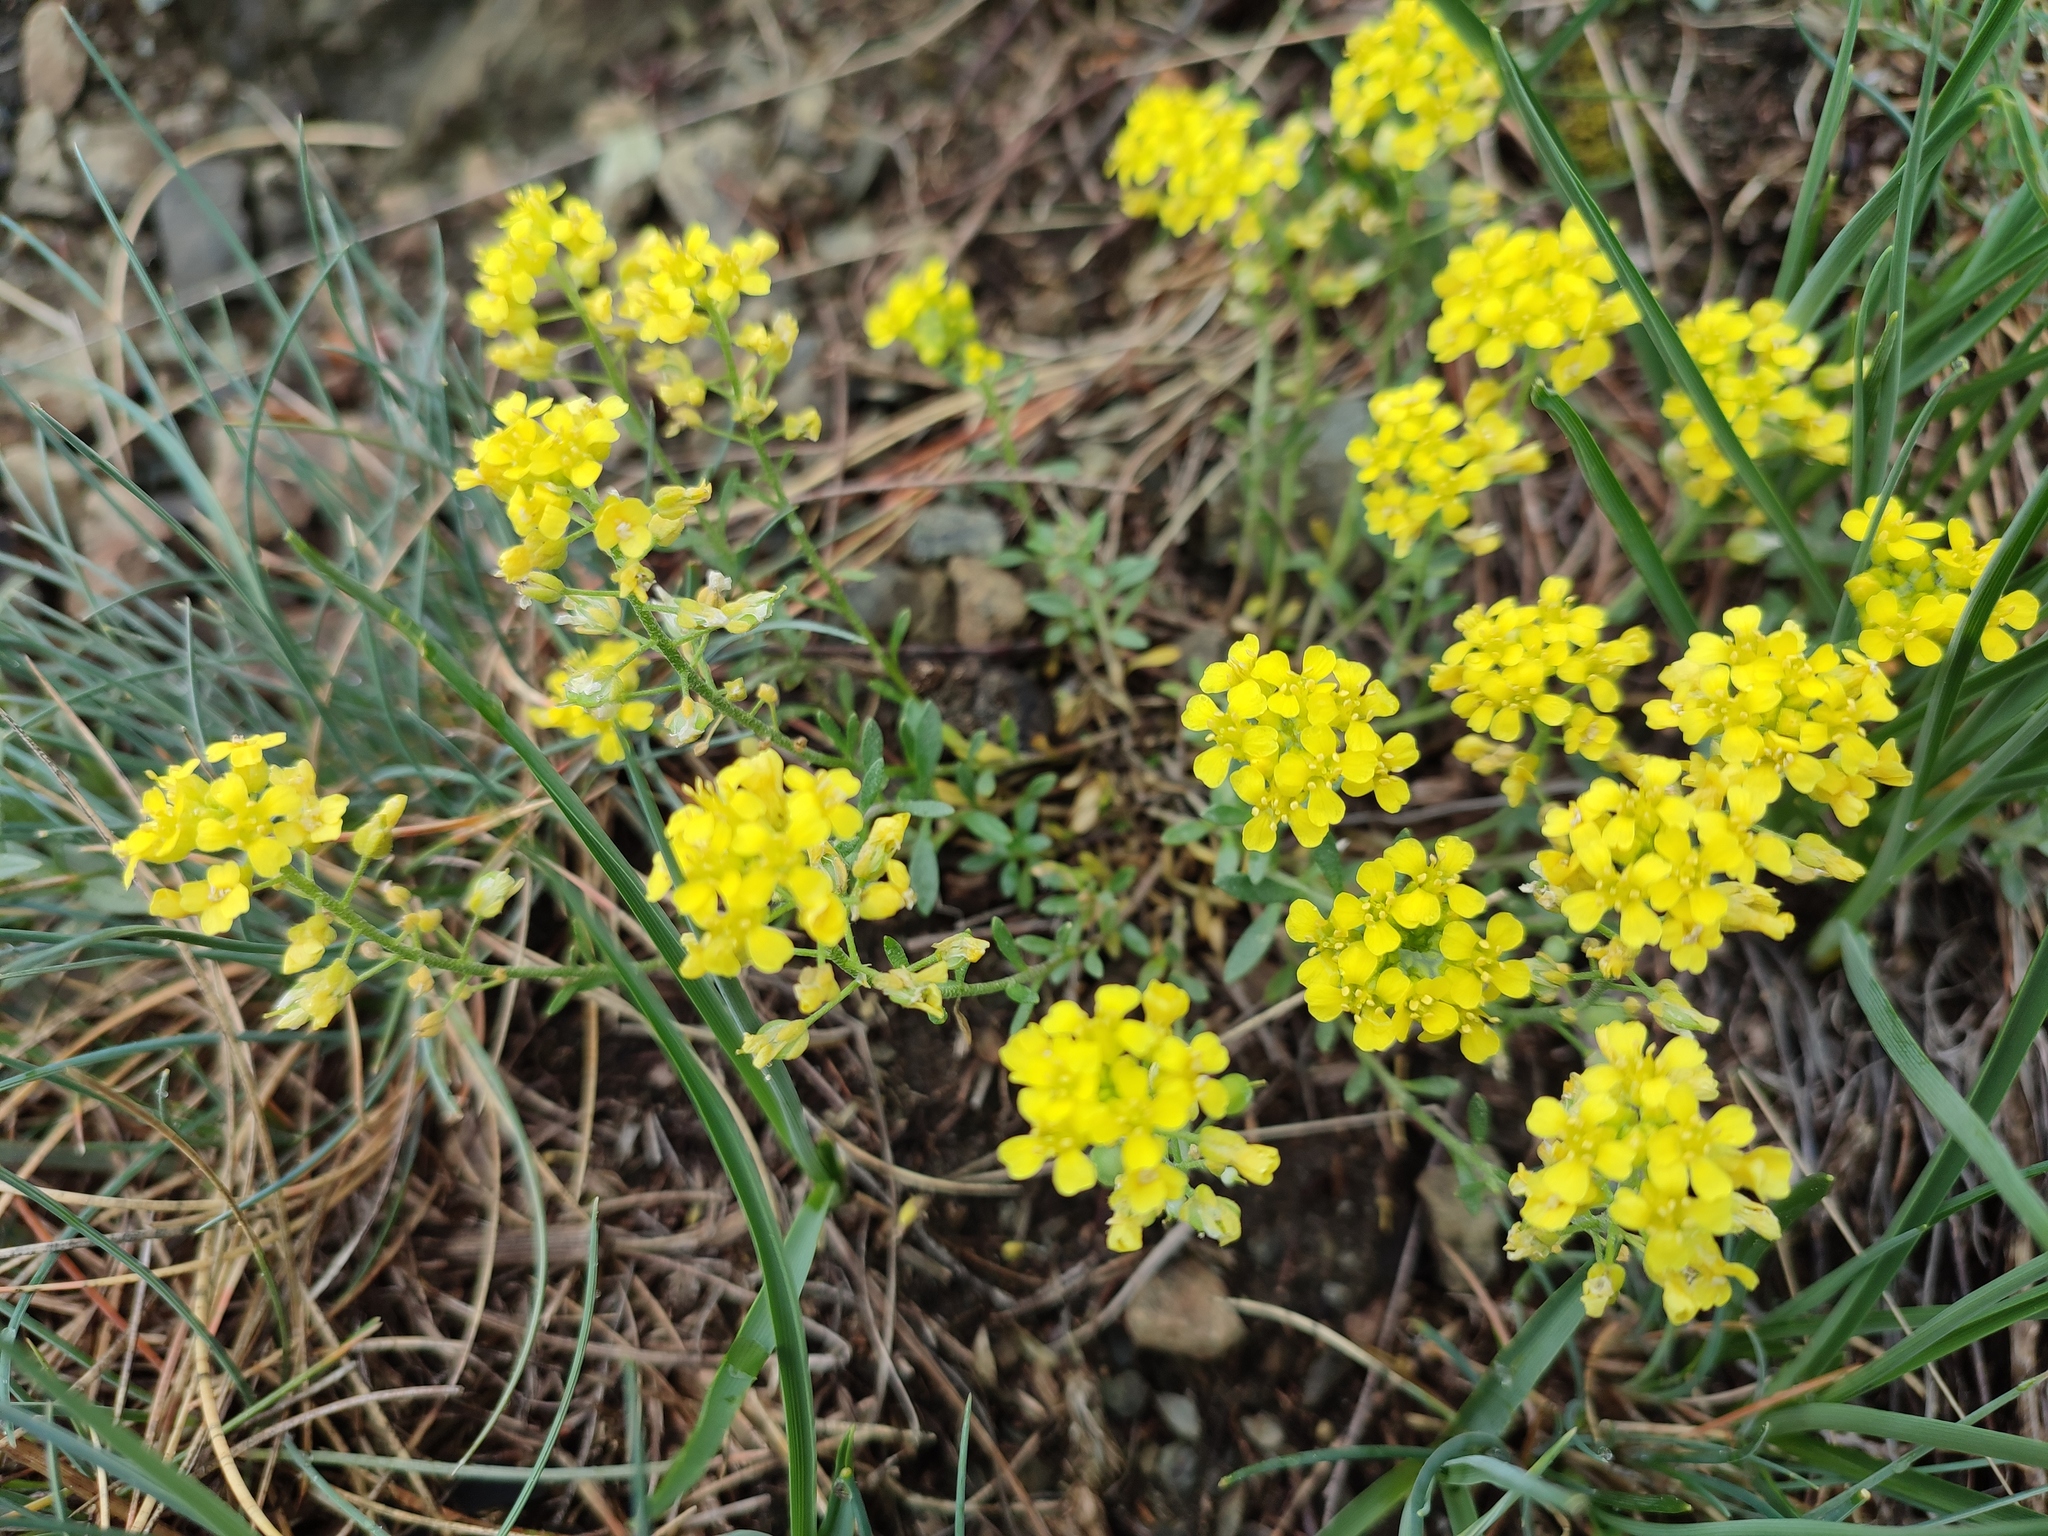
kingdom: Plantae
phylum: Tracheophyta
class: Magnoliopsida
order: Brassicales
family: Brassicaceae
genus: Alyssum
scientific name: Alyssum gmelinii
